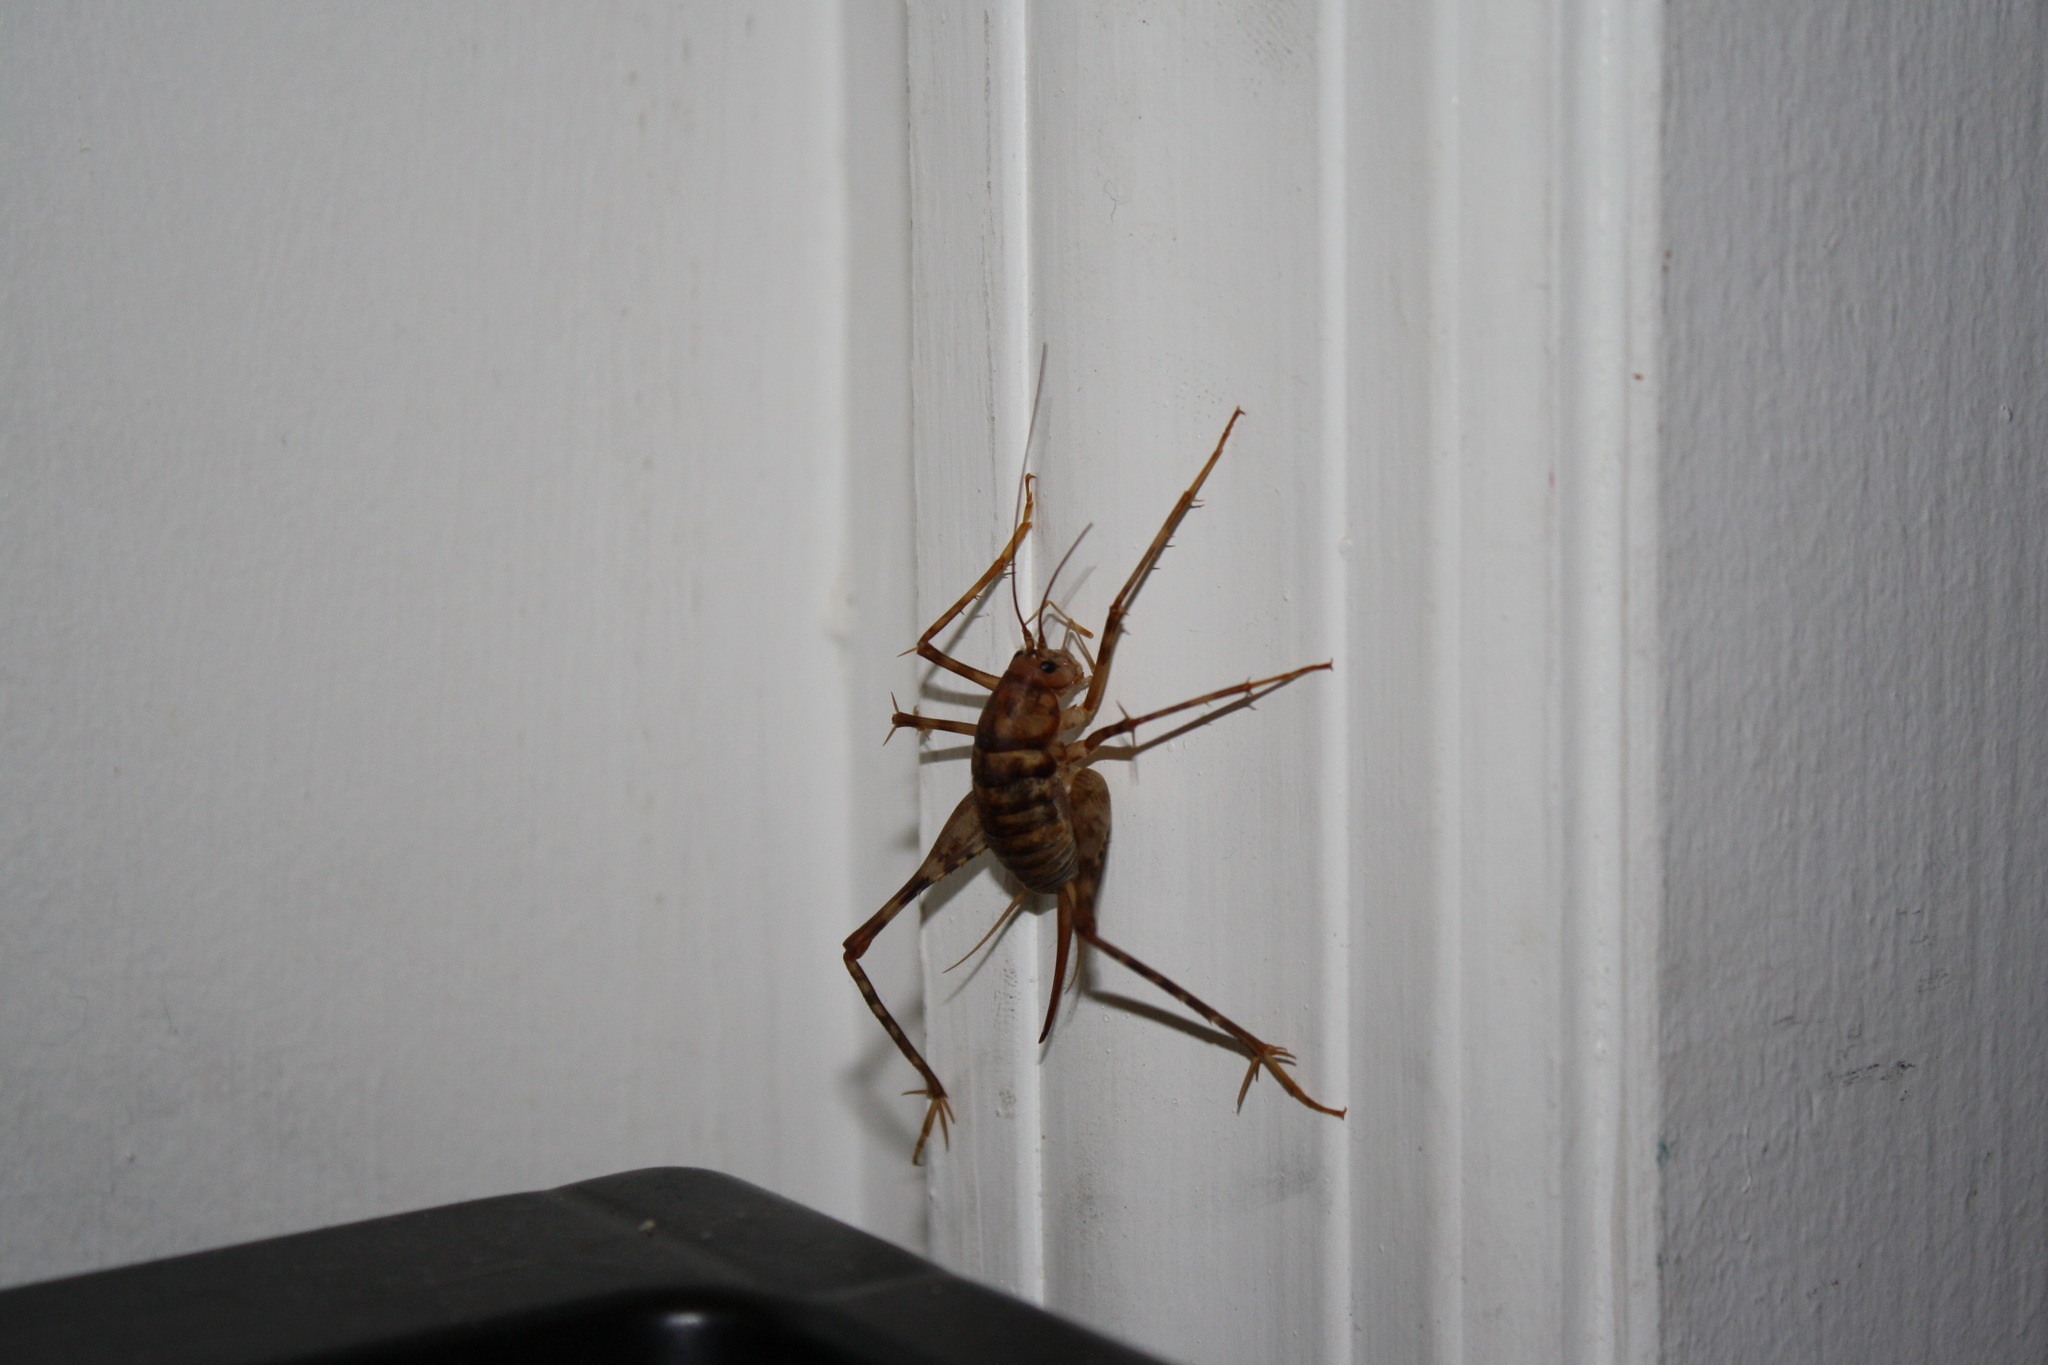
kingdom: Animalia
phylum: Arthropoda
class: Insecta
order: Orthoptera
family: Rhaphidophoridae
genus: Tachycines
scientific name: Tachycines asynamorus
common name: Greenhouse camel cricket
